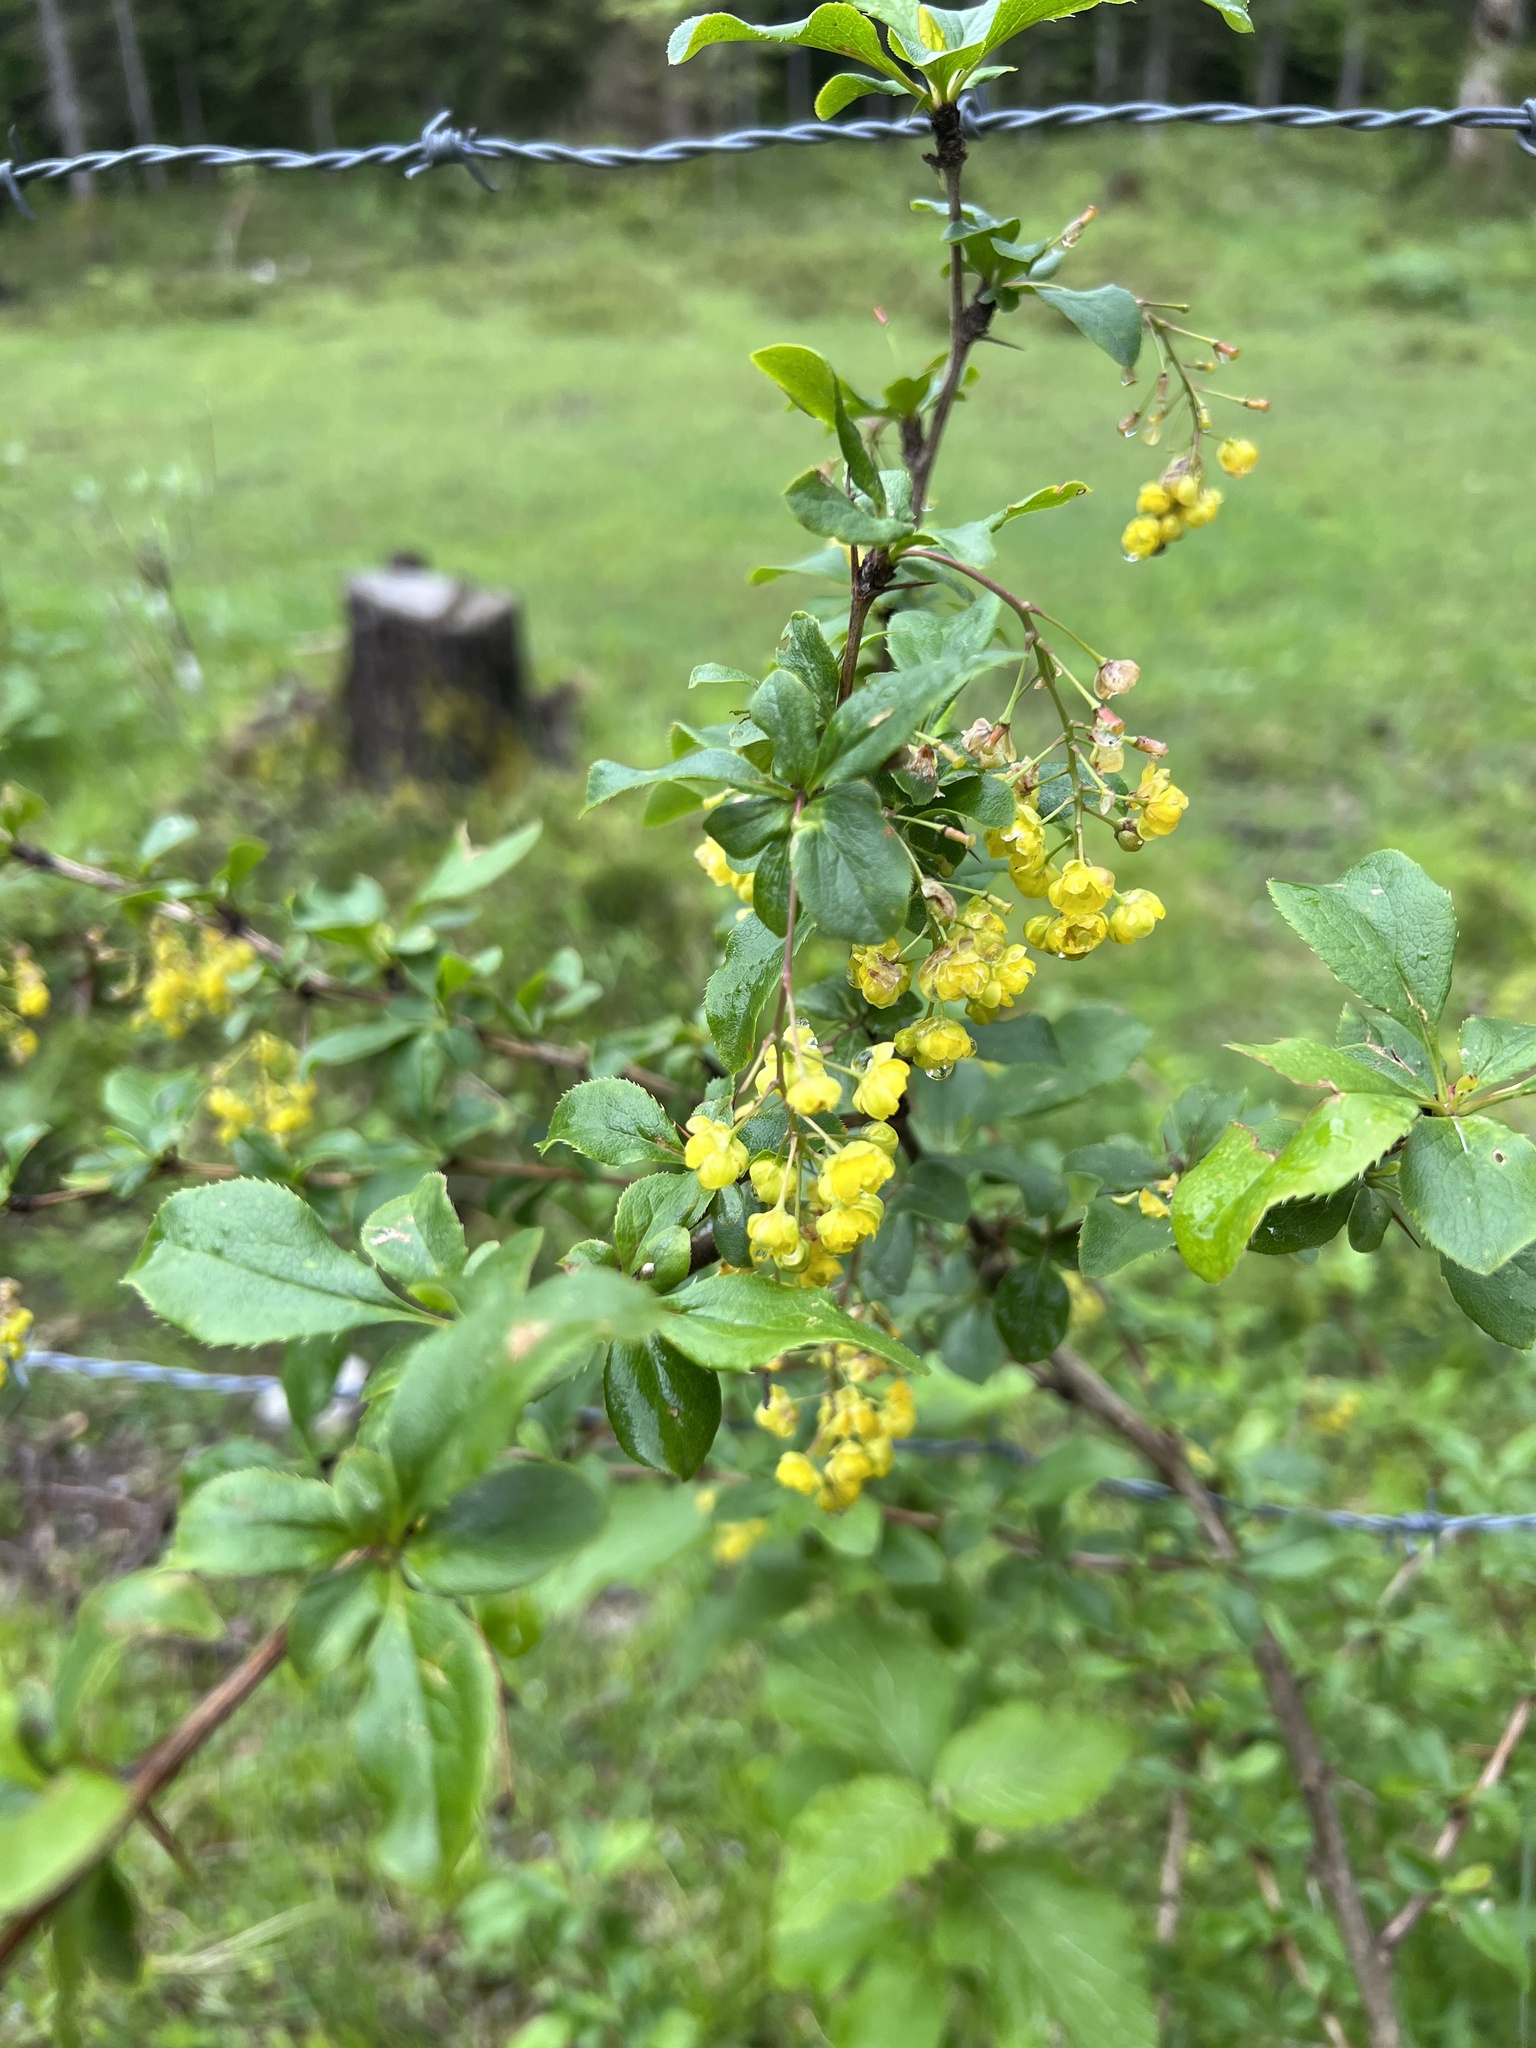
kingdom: Plantae
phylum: Tracheophyta
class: Magnoliopsida
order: Ranunculales
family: Berberidaceae
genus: Berberis
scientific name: Berberis vulgaris
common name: Barberry
